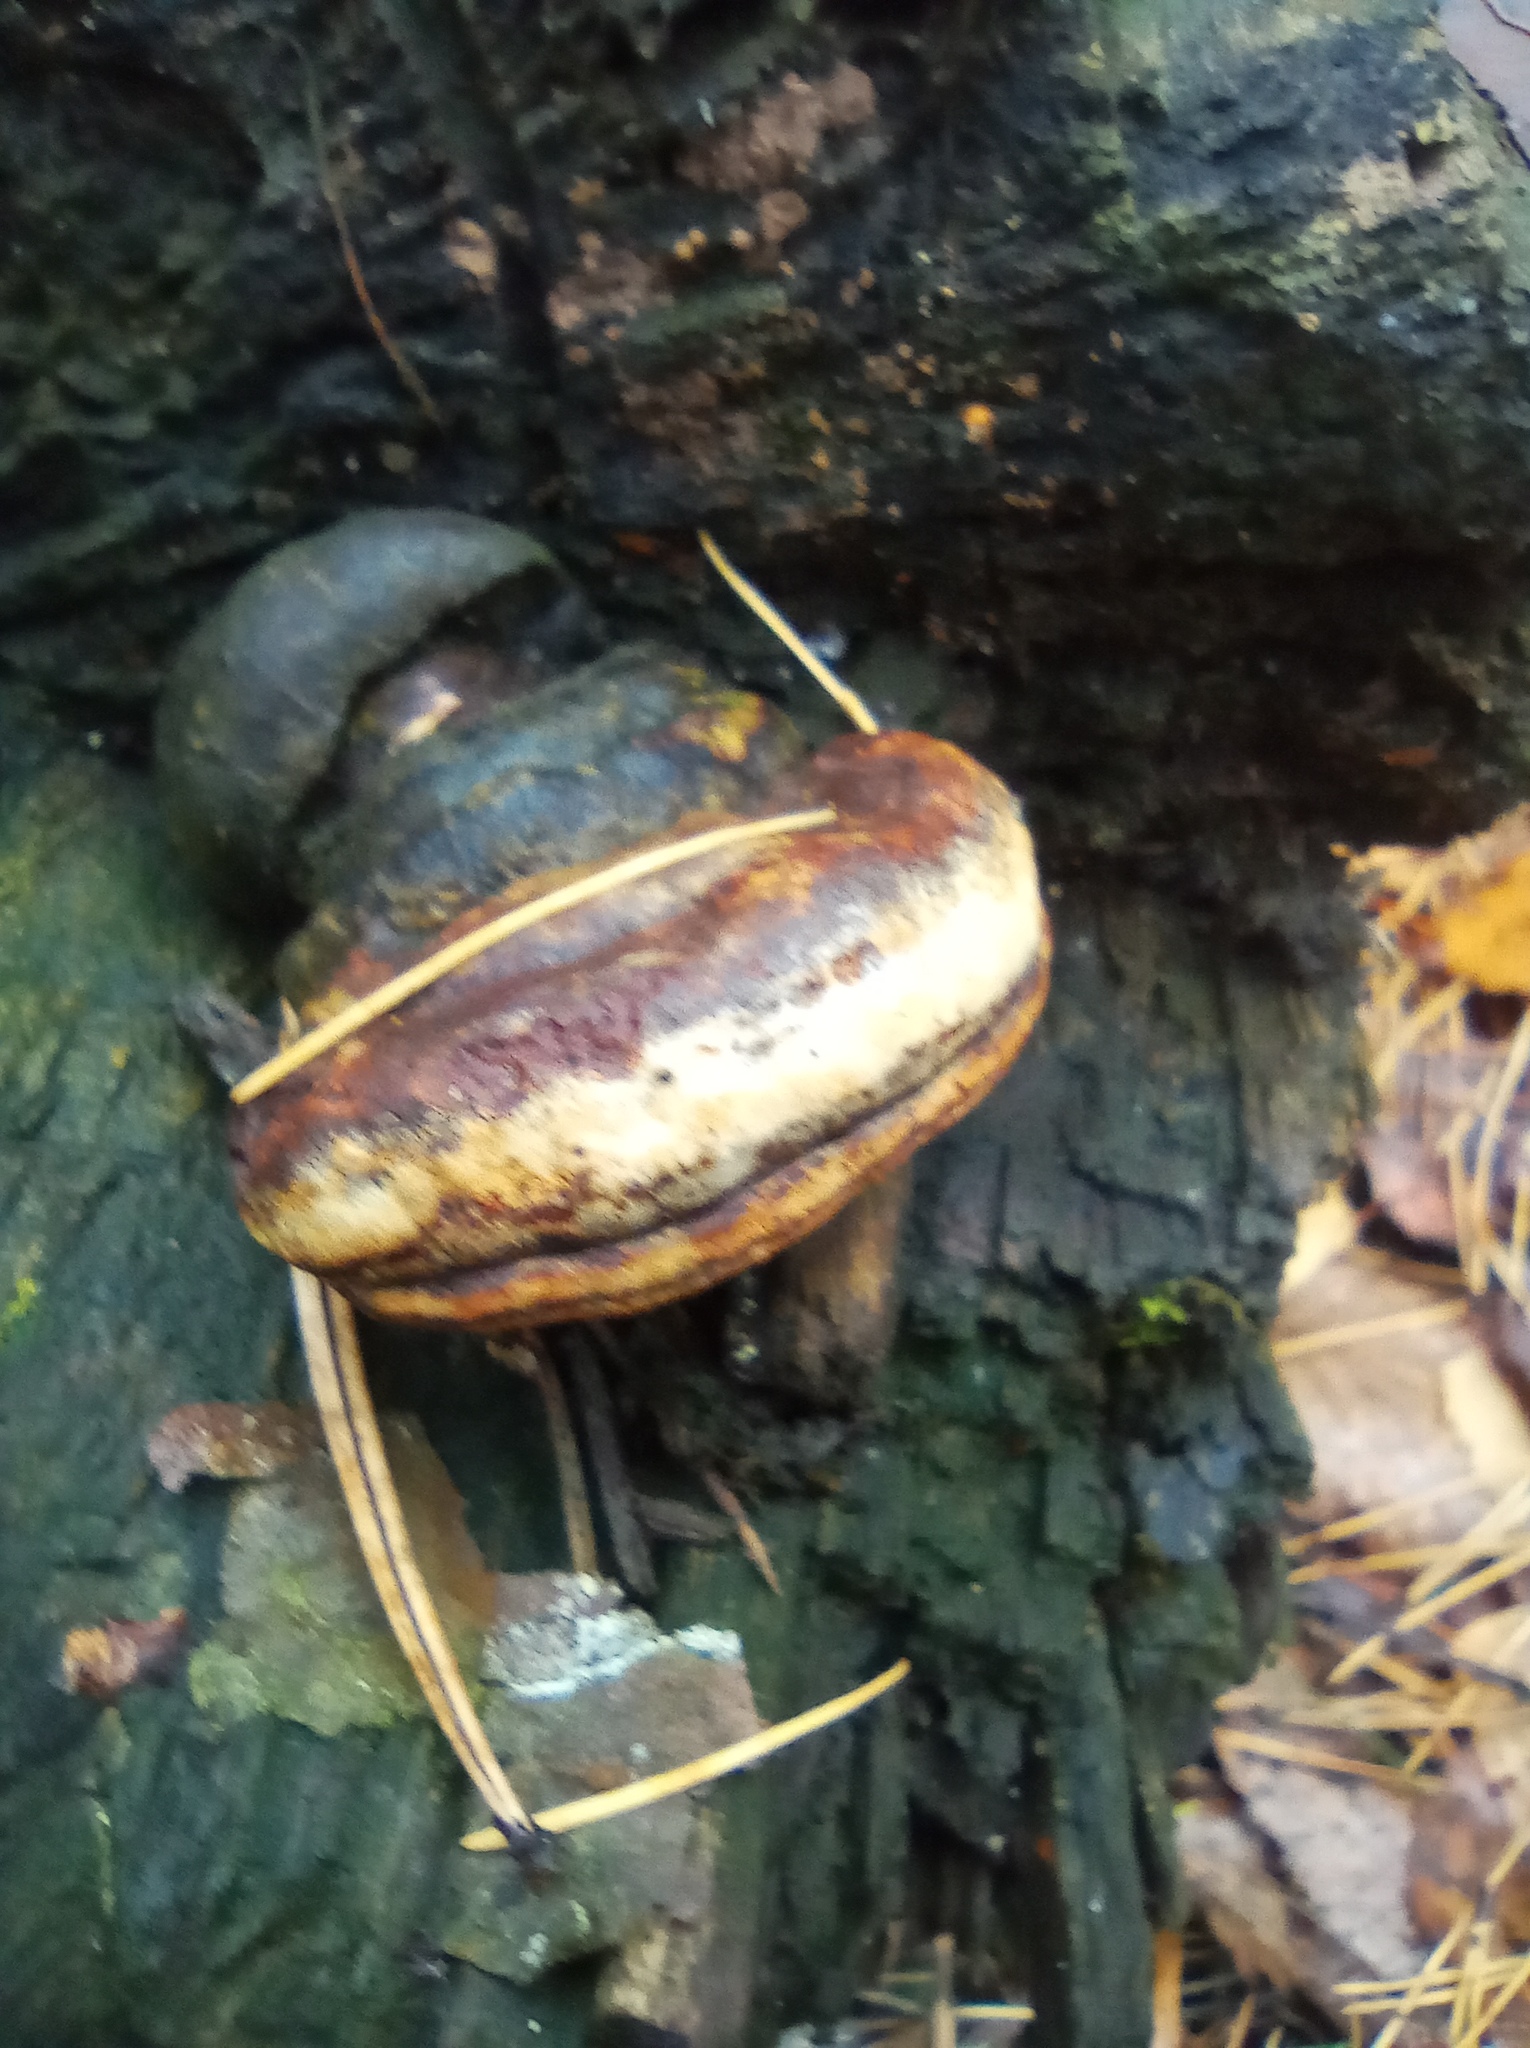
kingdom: Fungi
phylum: Basidiomycota
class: Agaricomycetes
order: Polyporales
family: Fomitopsidaceae
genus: Fomitopsis
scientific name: Fomitopsis pinicola
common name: Red-belted bracket
